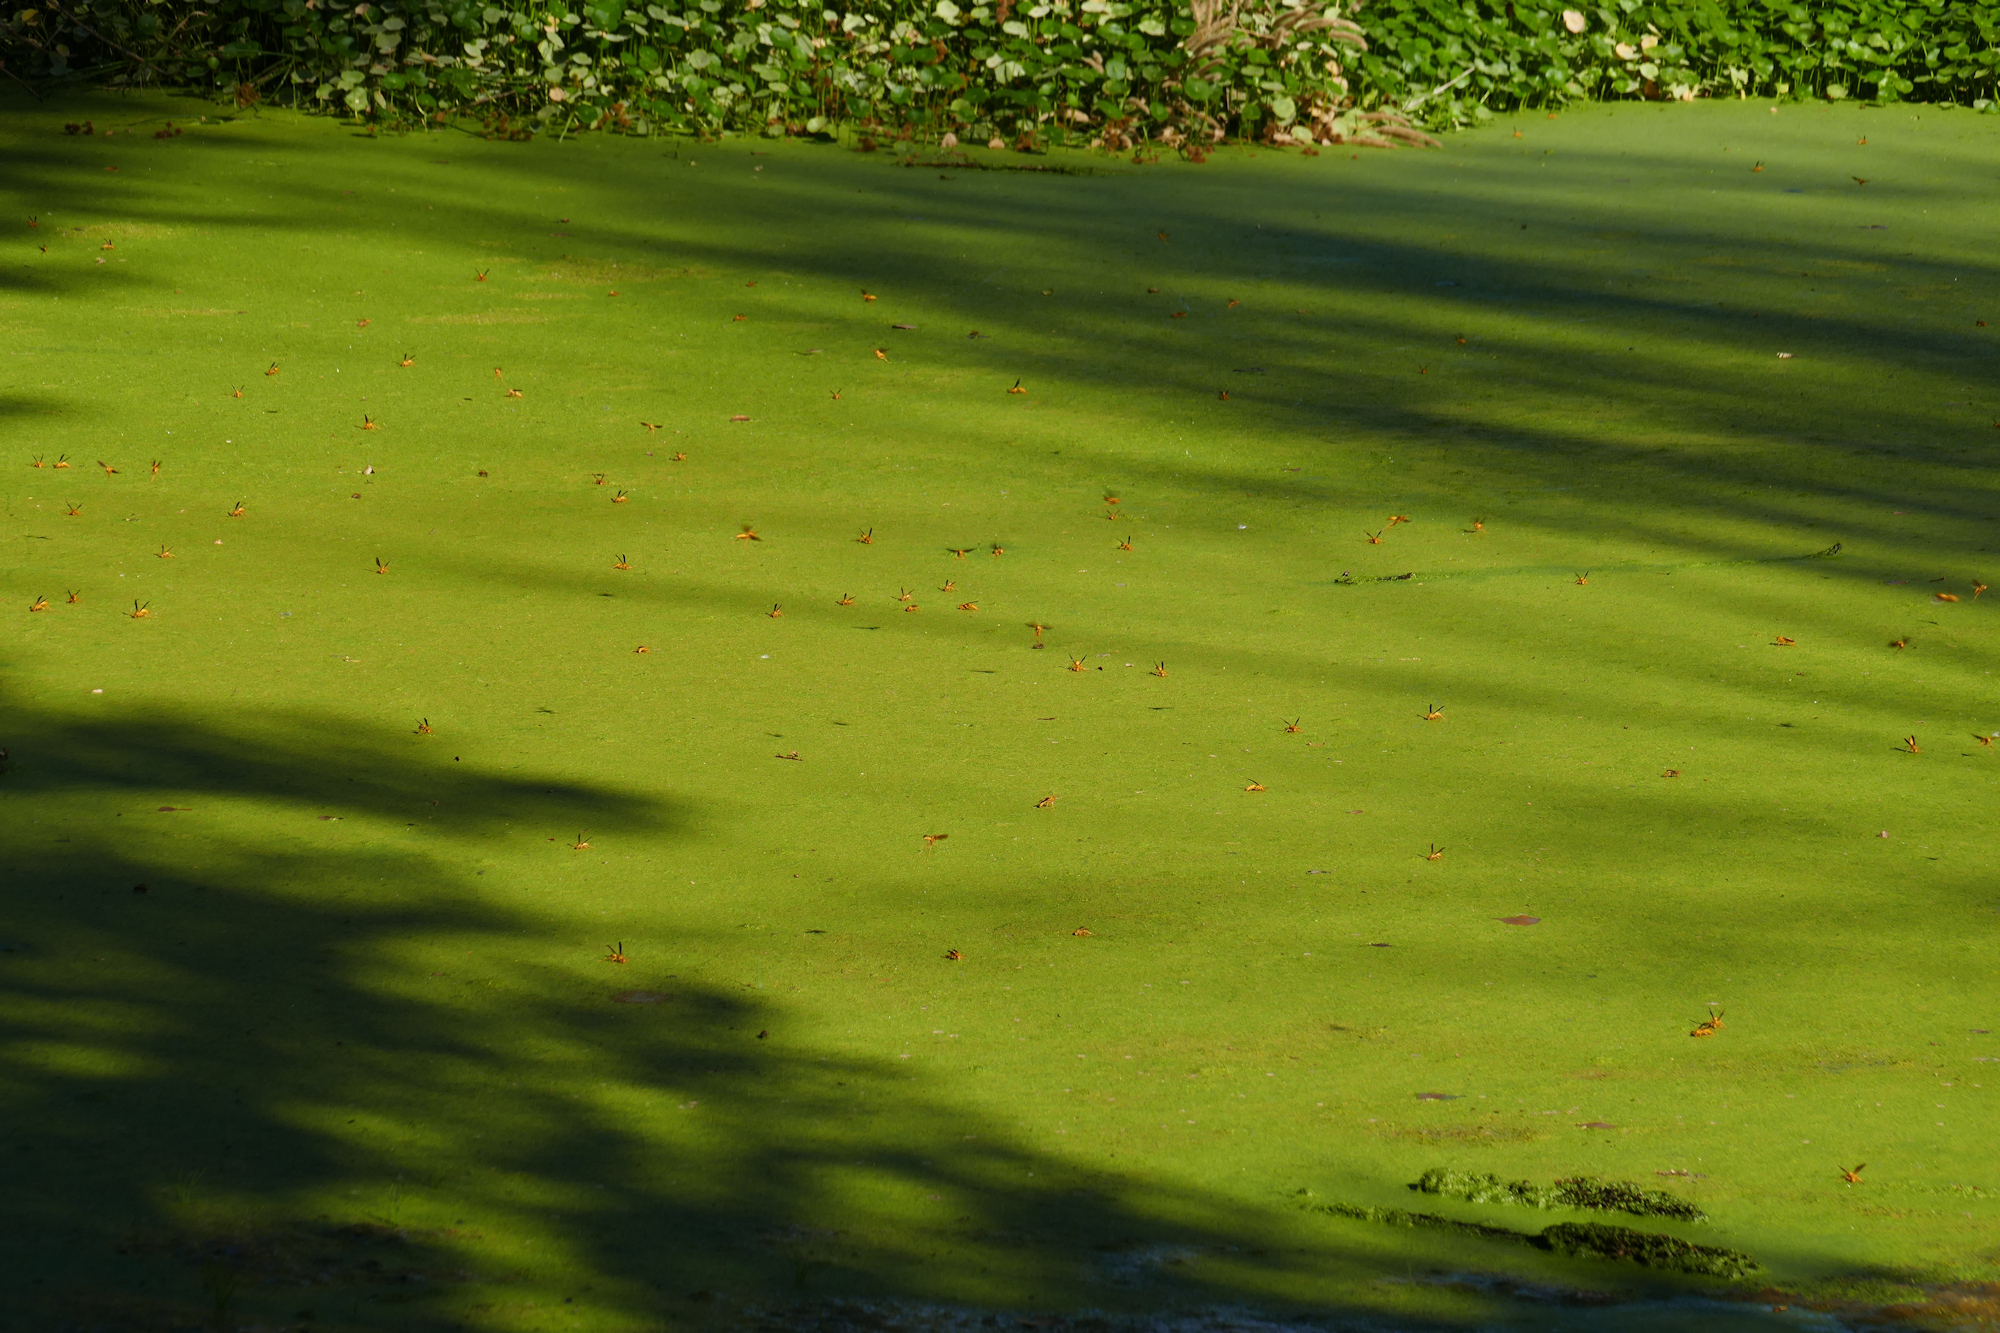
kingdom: Animalia
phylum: Arthropoda
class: Insecta
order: Hymenoptera
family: Eumenidae
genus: Polistes
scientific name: Polistes flavus
